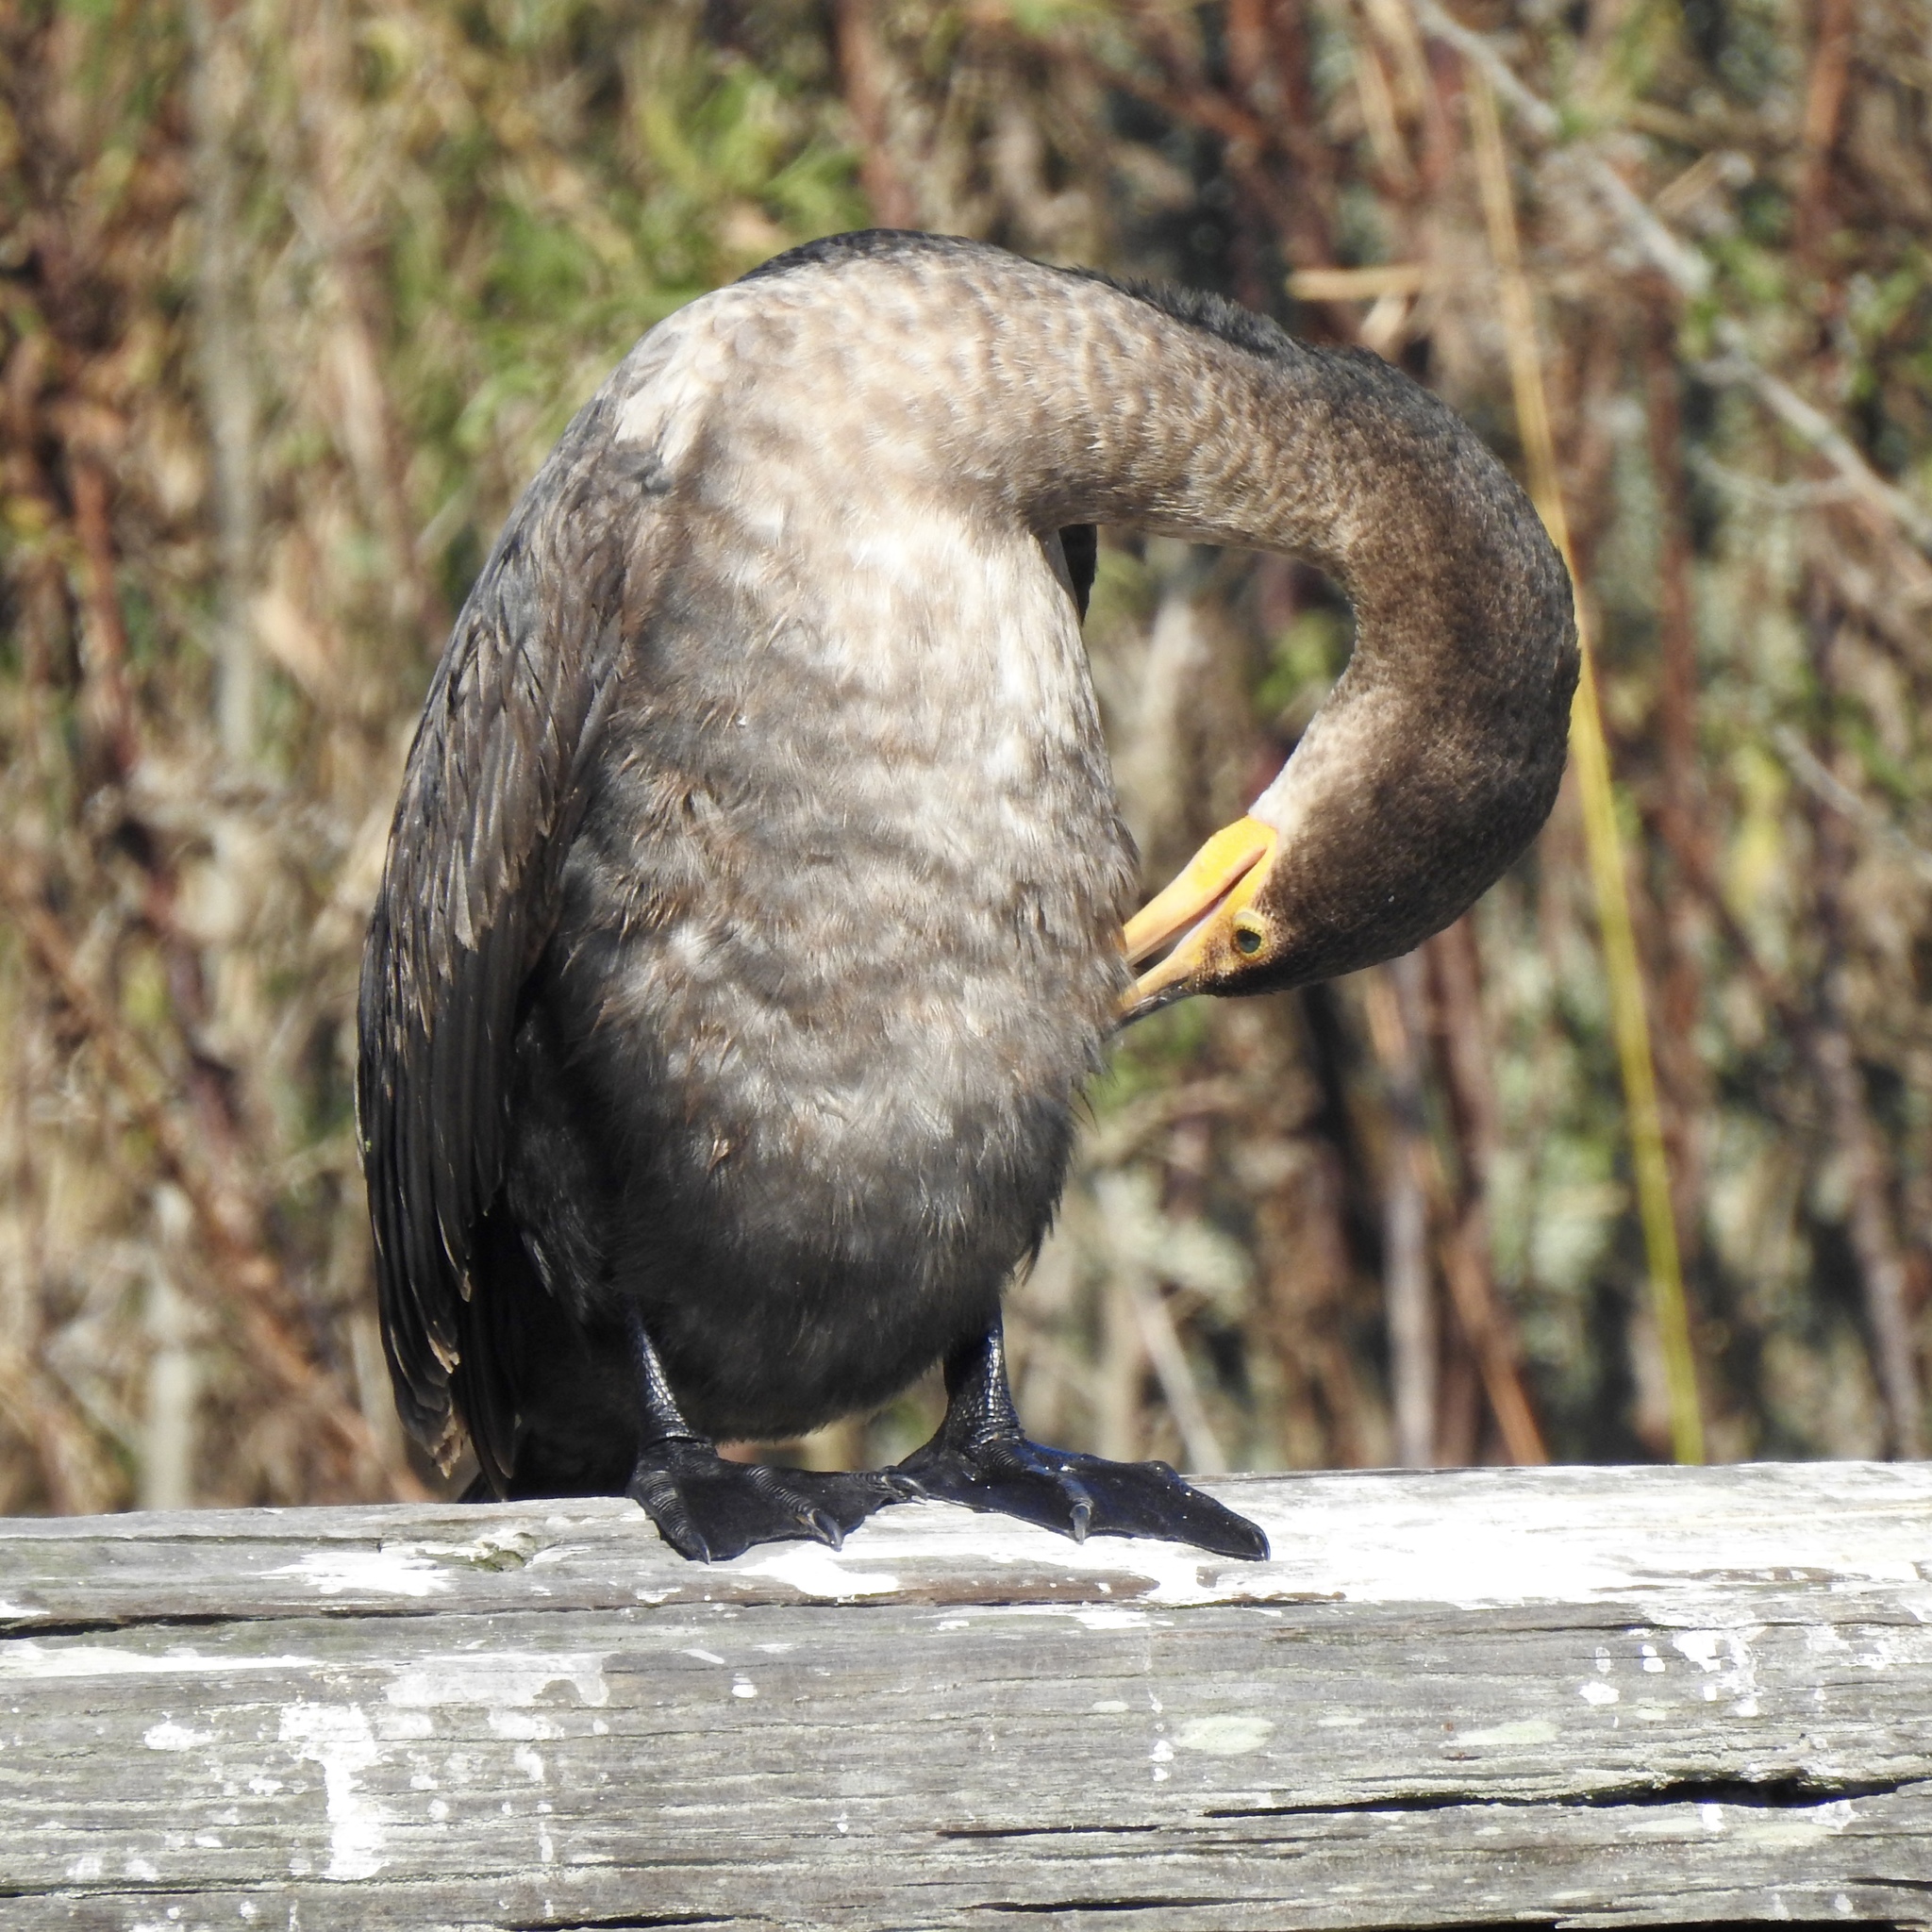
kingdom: Animalia
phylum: Chordata
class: Aves
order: Suliformes
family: Phalacrocoracidae
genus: Phalacrocorax
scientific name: Phalacrocorax auritus
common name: Double-crested cormorant
